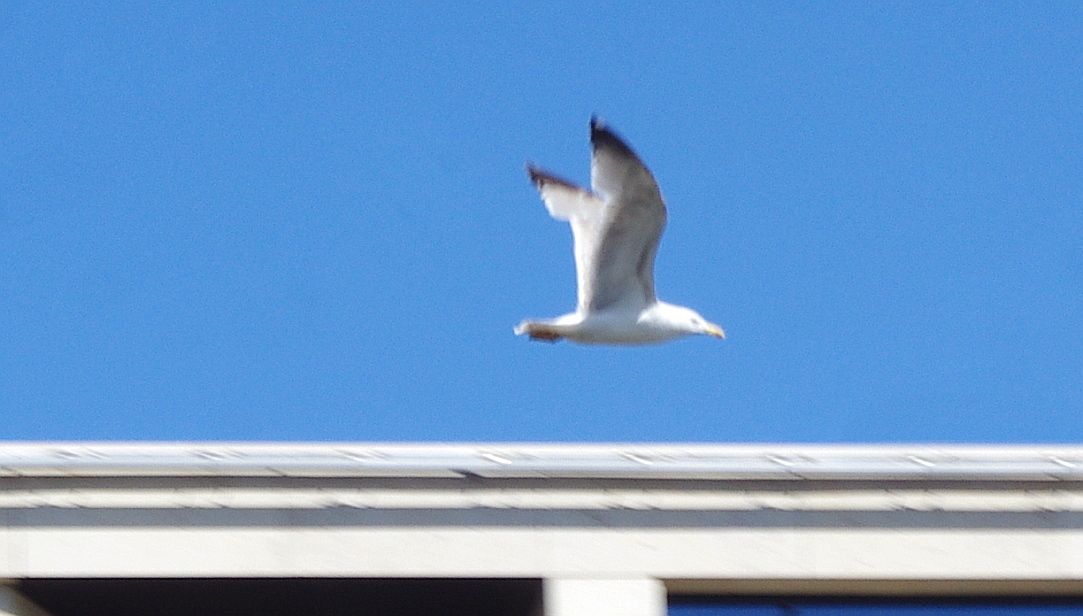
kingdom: Animalia
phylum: Chordata
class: Aves
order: Charadriiformes
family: Laridae
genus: Larus
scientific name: Larus argentatus
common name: Herring gull
